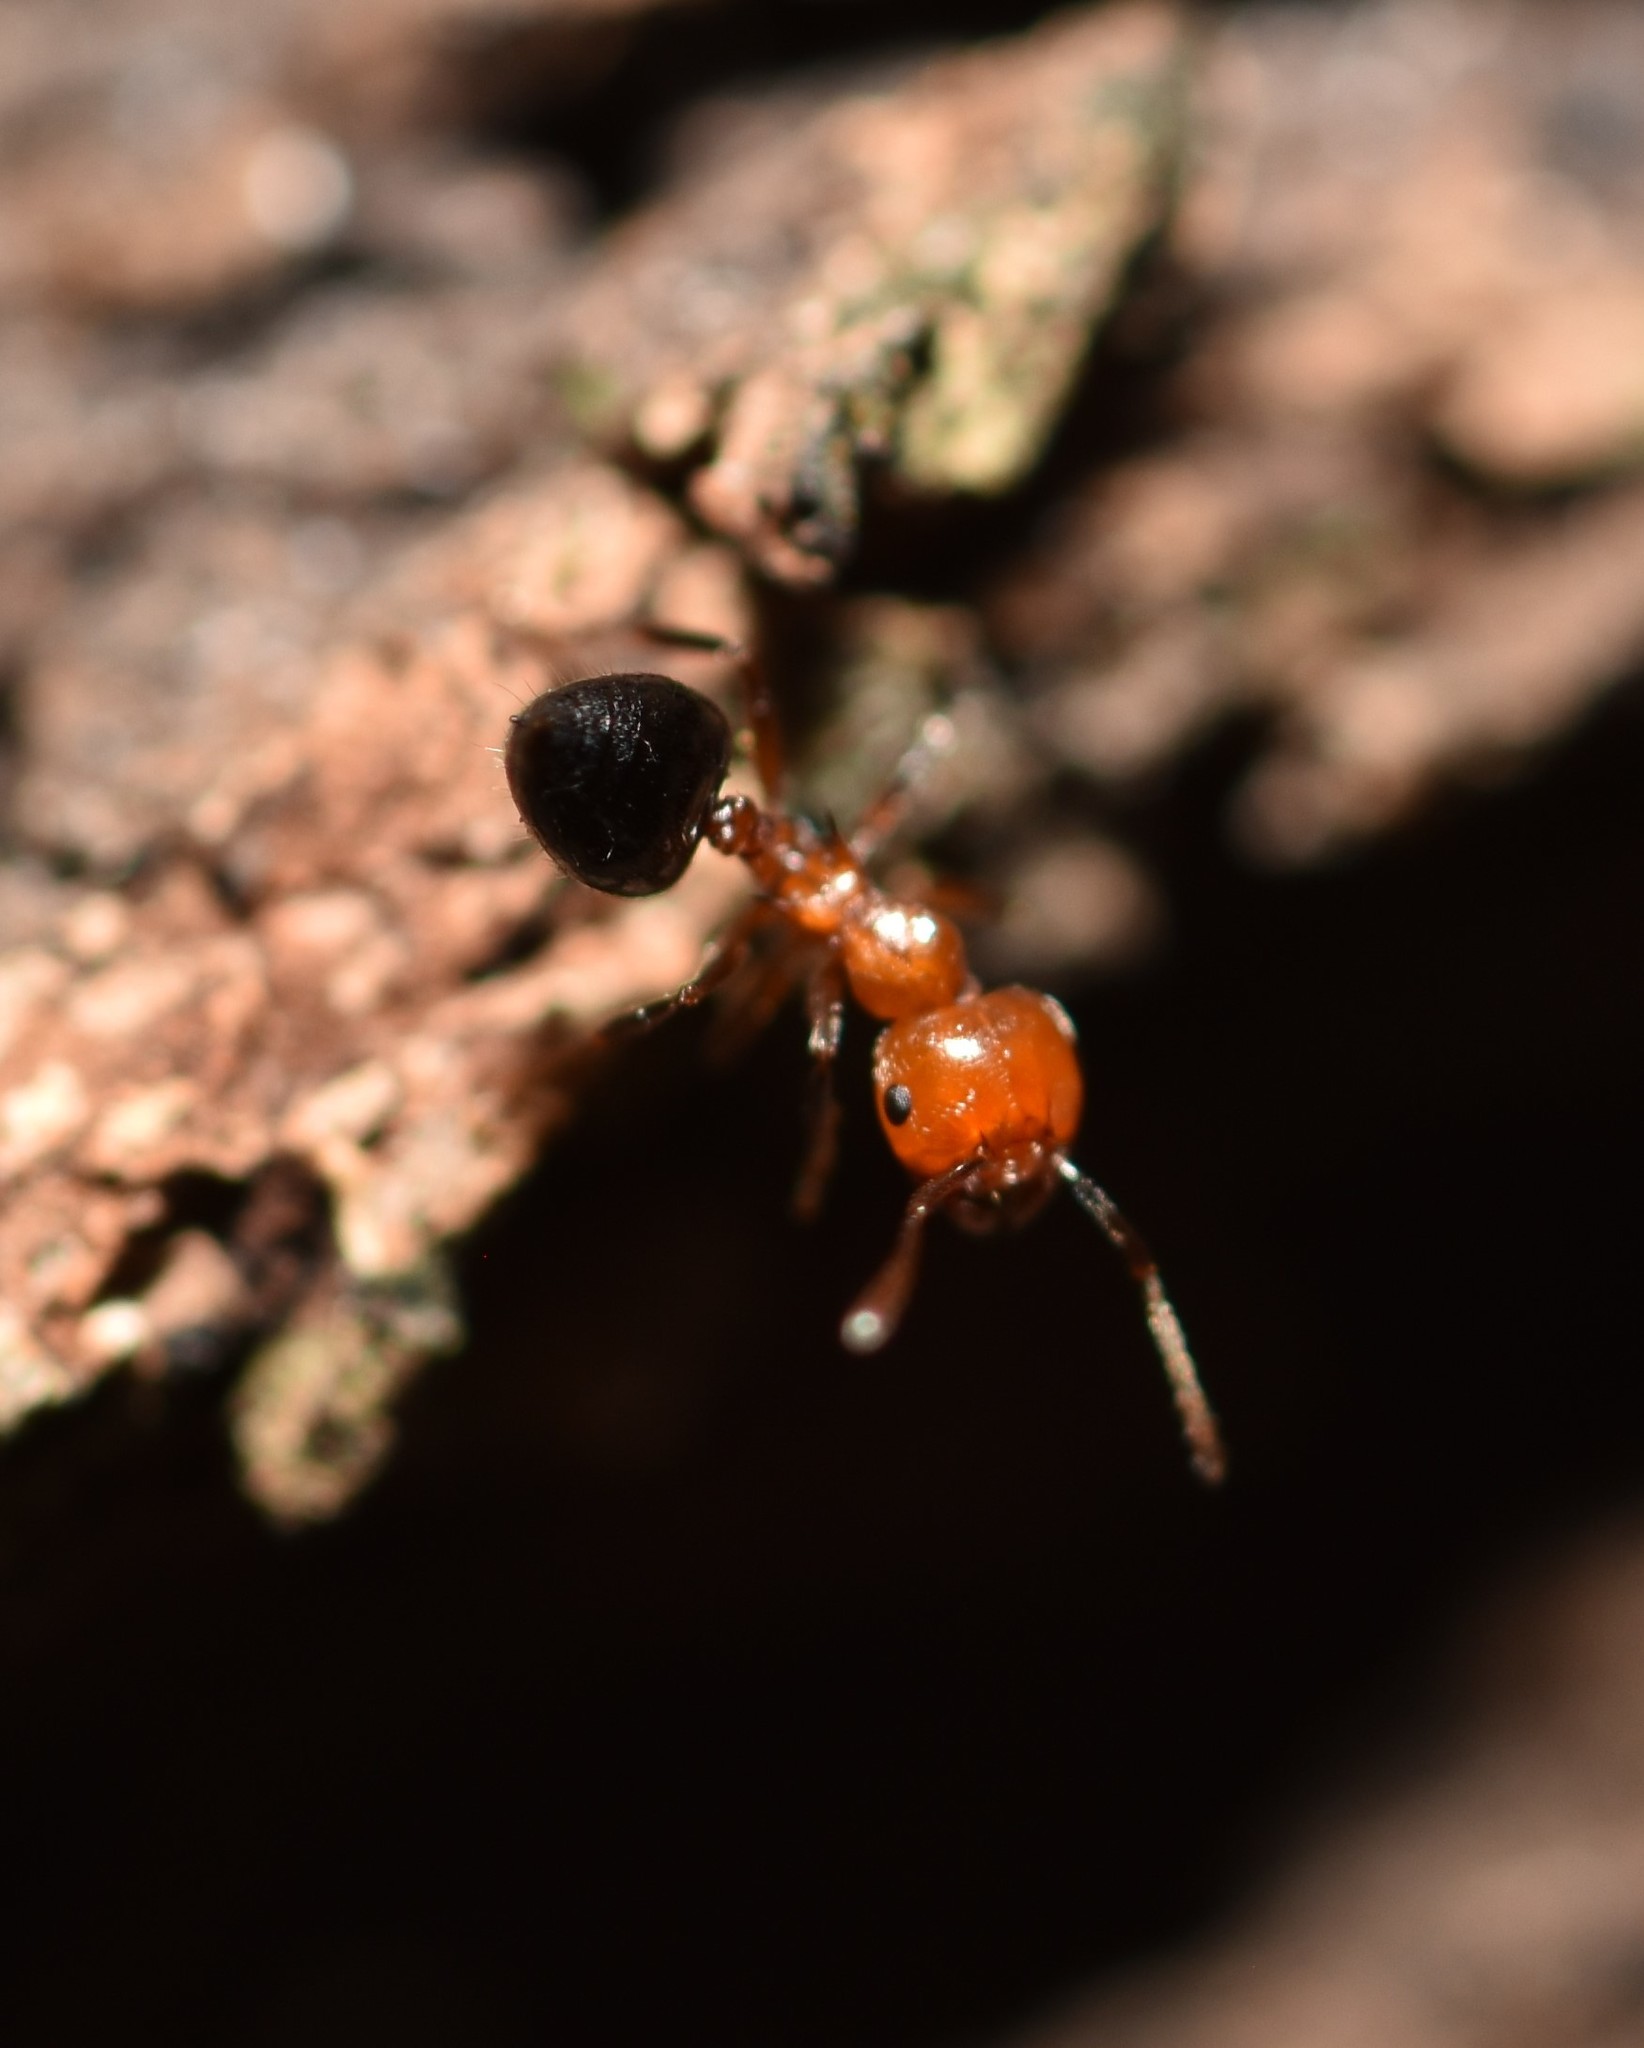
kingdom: Animalia
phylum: Arthropoda
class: Insecta
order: Hymenoptera
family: Formicidae
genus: Crematogaster
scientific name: Crematogaster laeviuscula
